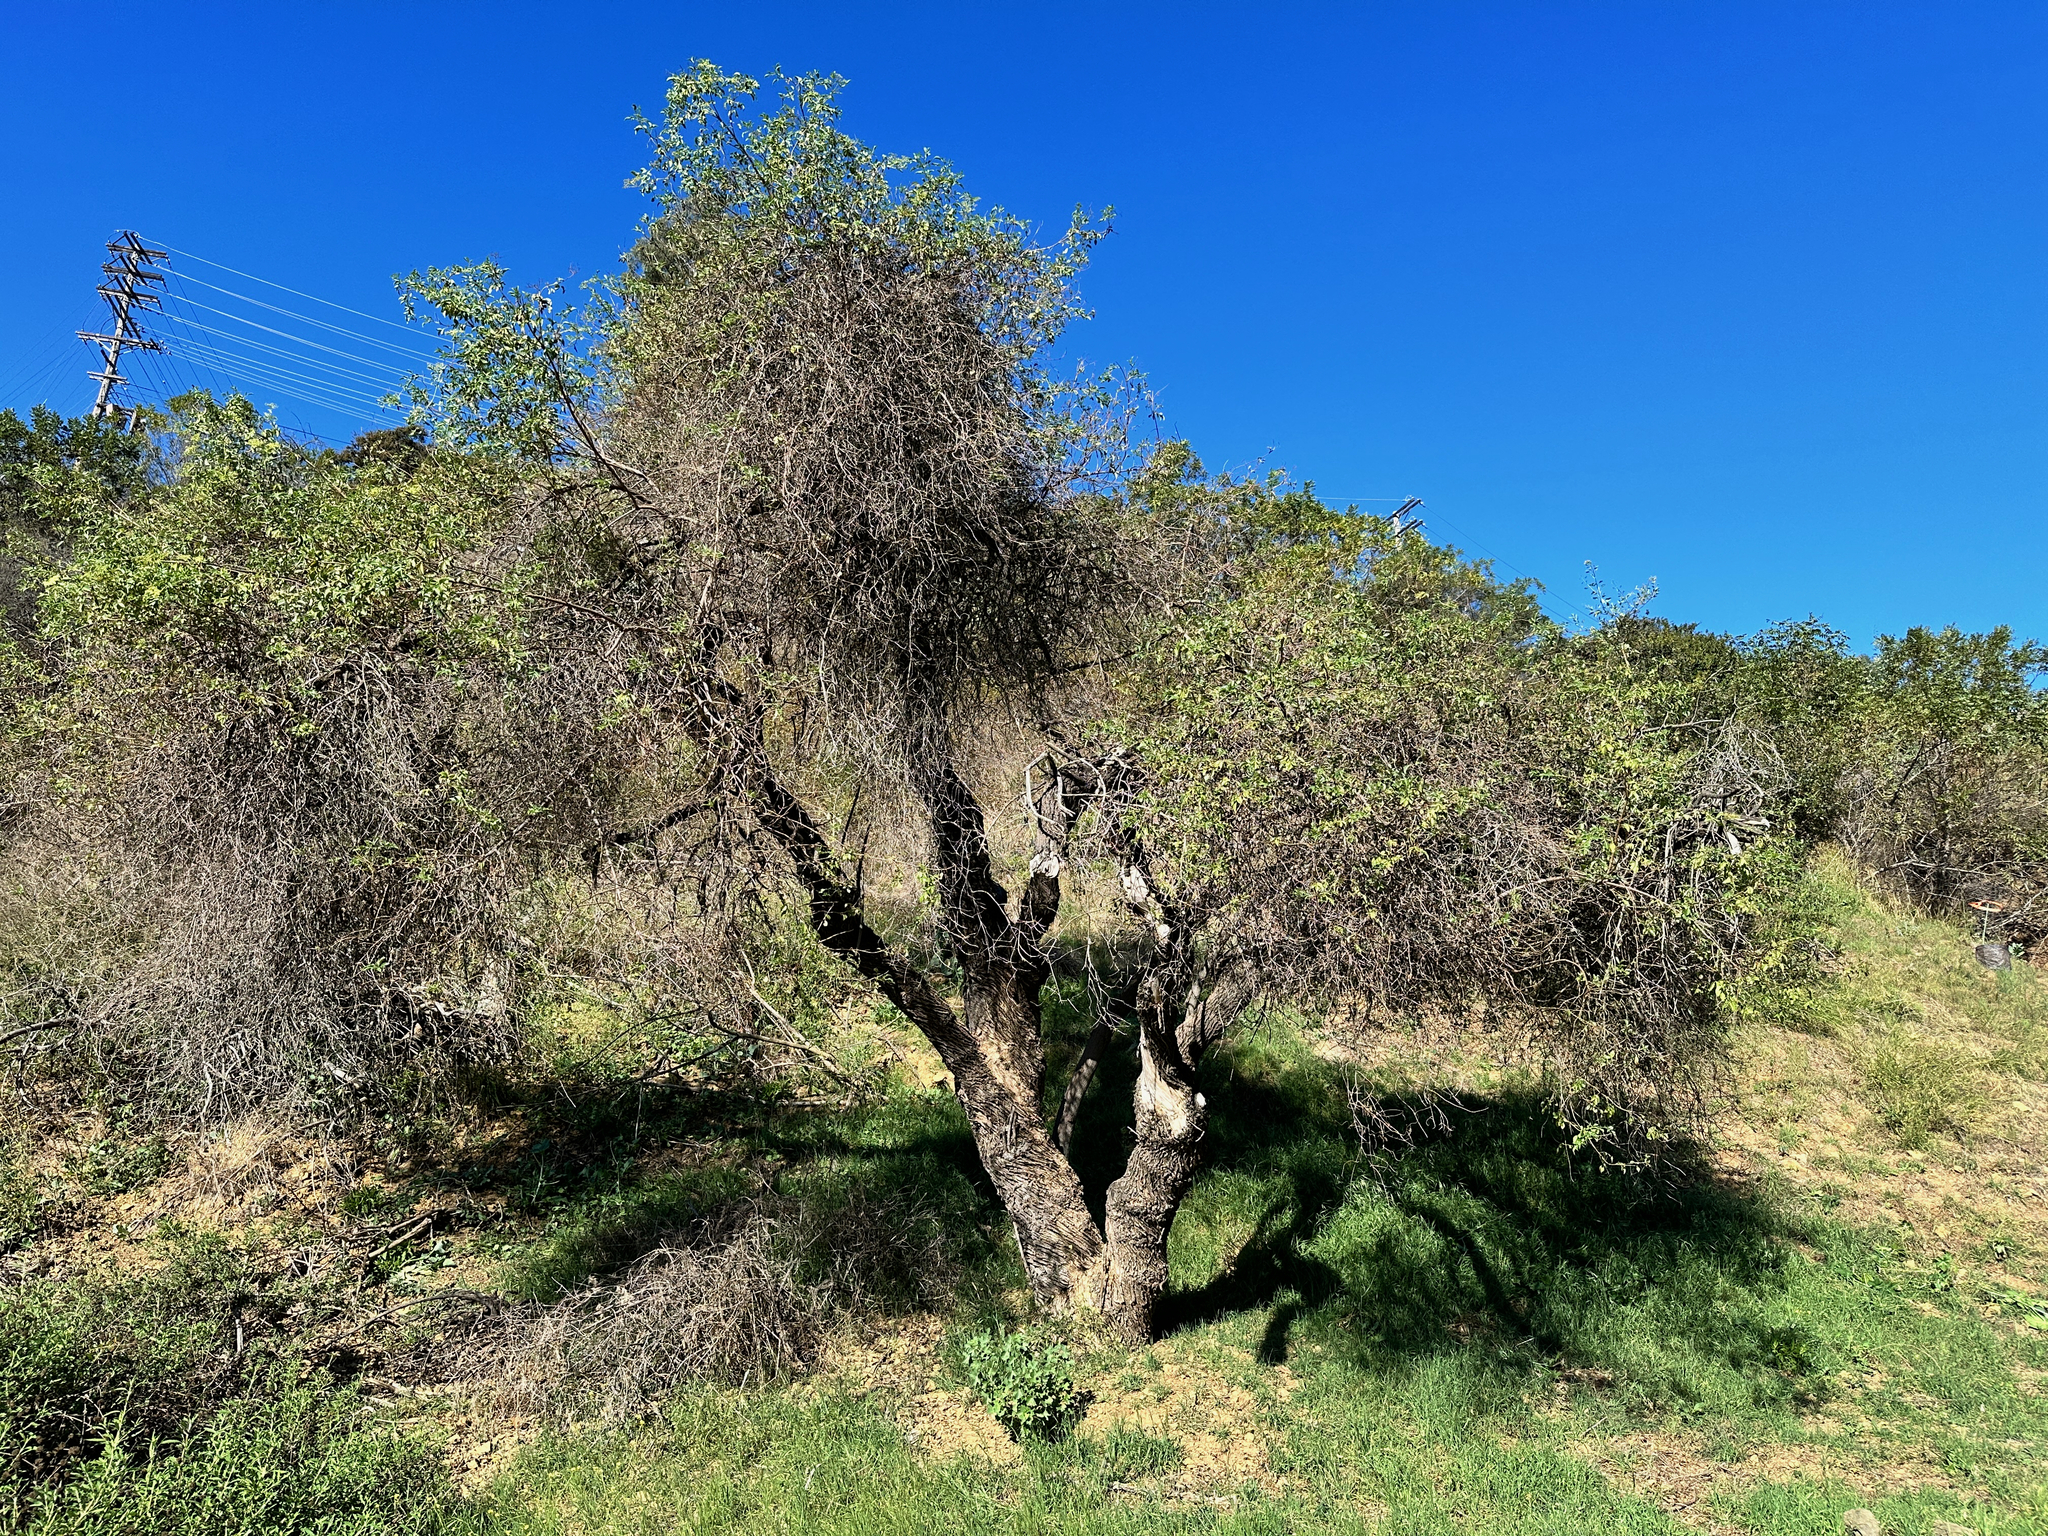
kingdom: Plantae
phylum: Tracheophyta
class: Magnoliopsida
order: Dipsacales
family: Viburnaceae
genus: Sambucus
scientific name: Sambucus cerulea
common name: Blue elder
